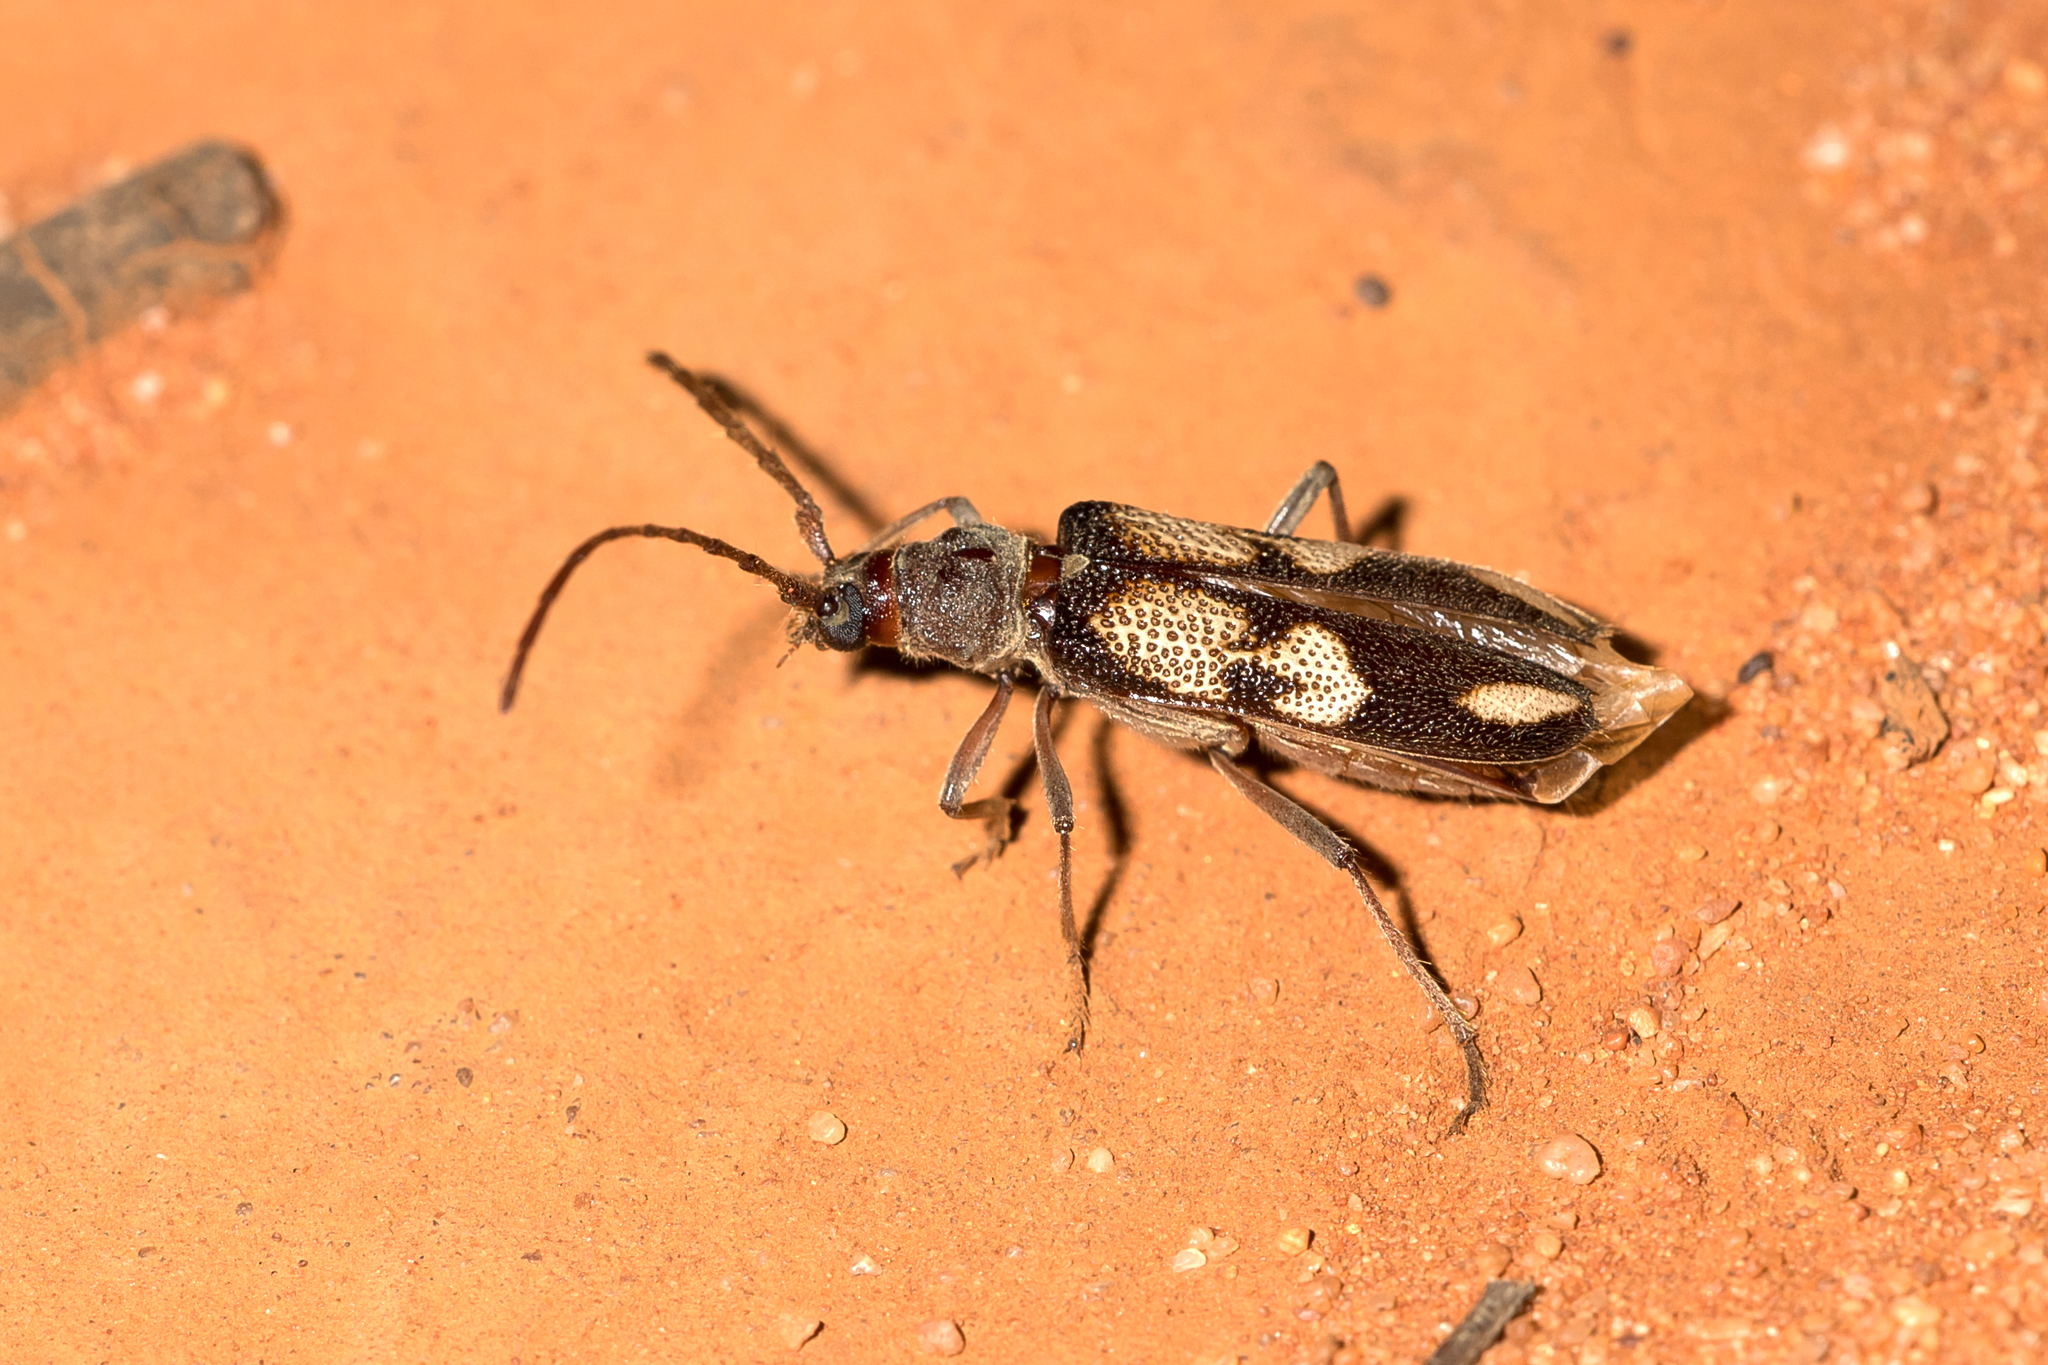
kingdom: Animalia
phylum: Arthropoda
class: Insecta
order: Coleoptera
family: Cerambycidae
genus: Phoracantha
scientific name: Phoracantha flavopicta
